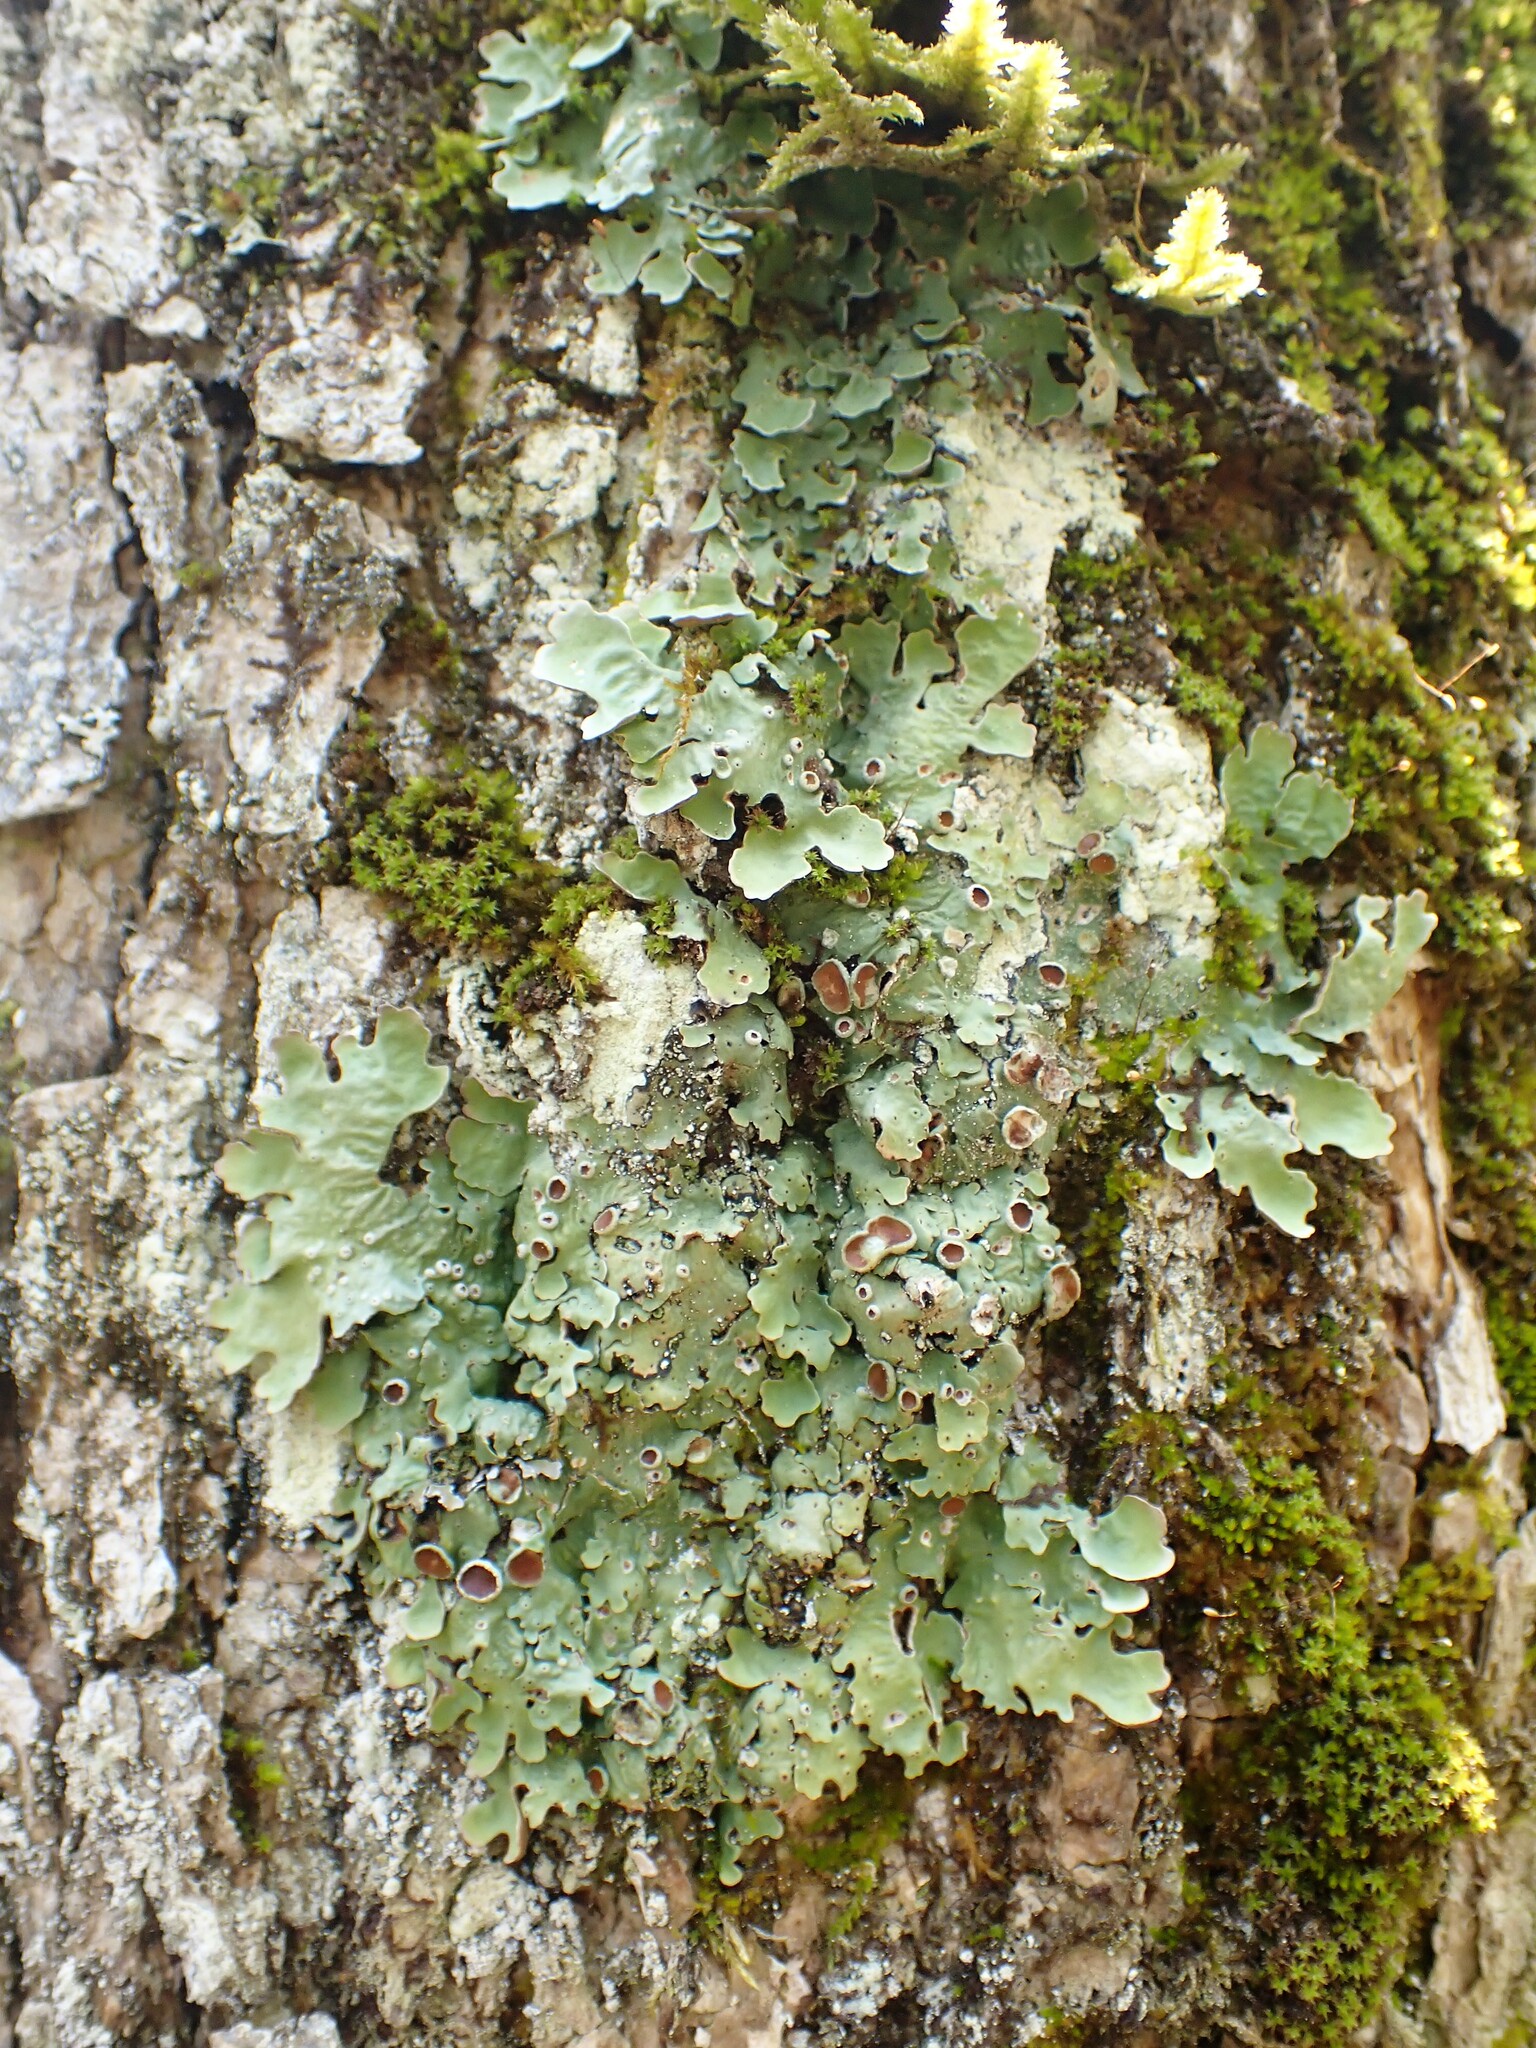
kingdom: Fungi
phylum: Ascomycota
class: Lecanoromycetes
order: Peltigerales
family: Lobariaceae
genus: Ricasolia
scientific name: Ricasolia quercizans
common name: Smooth lungwort
